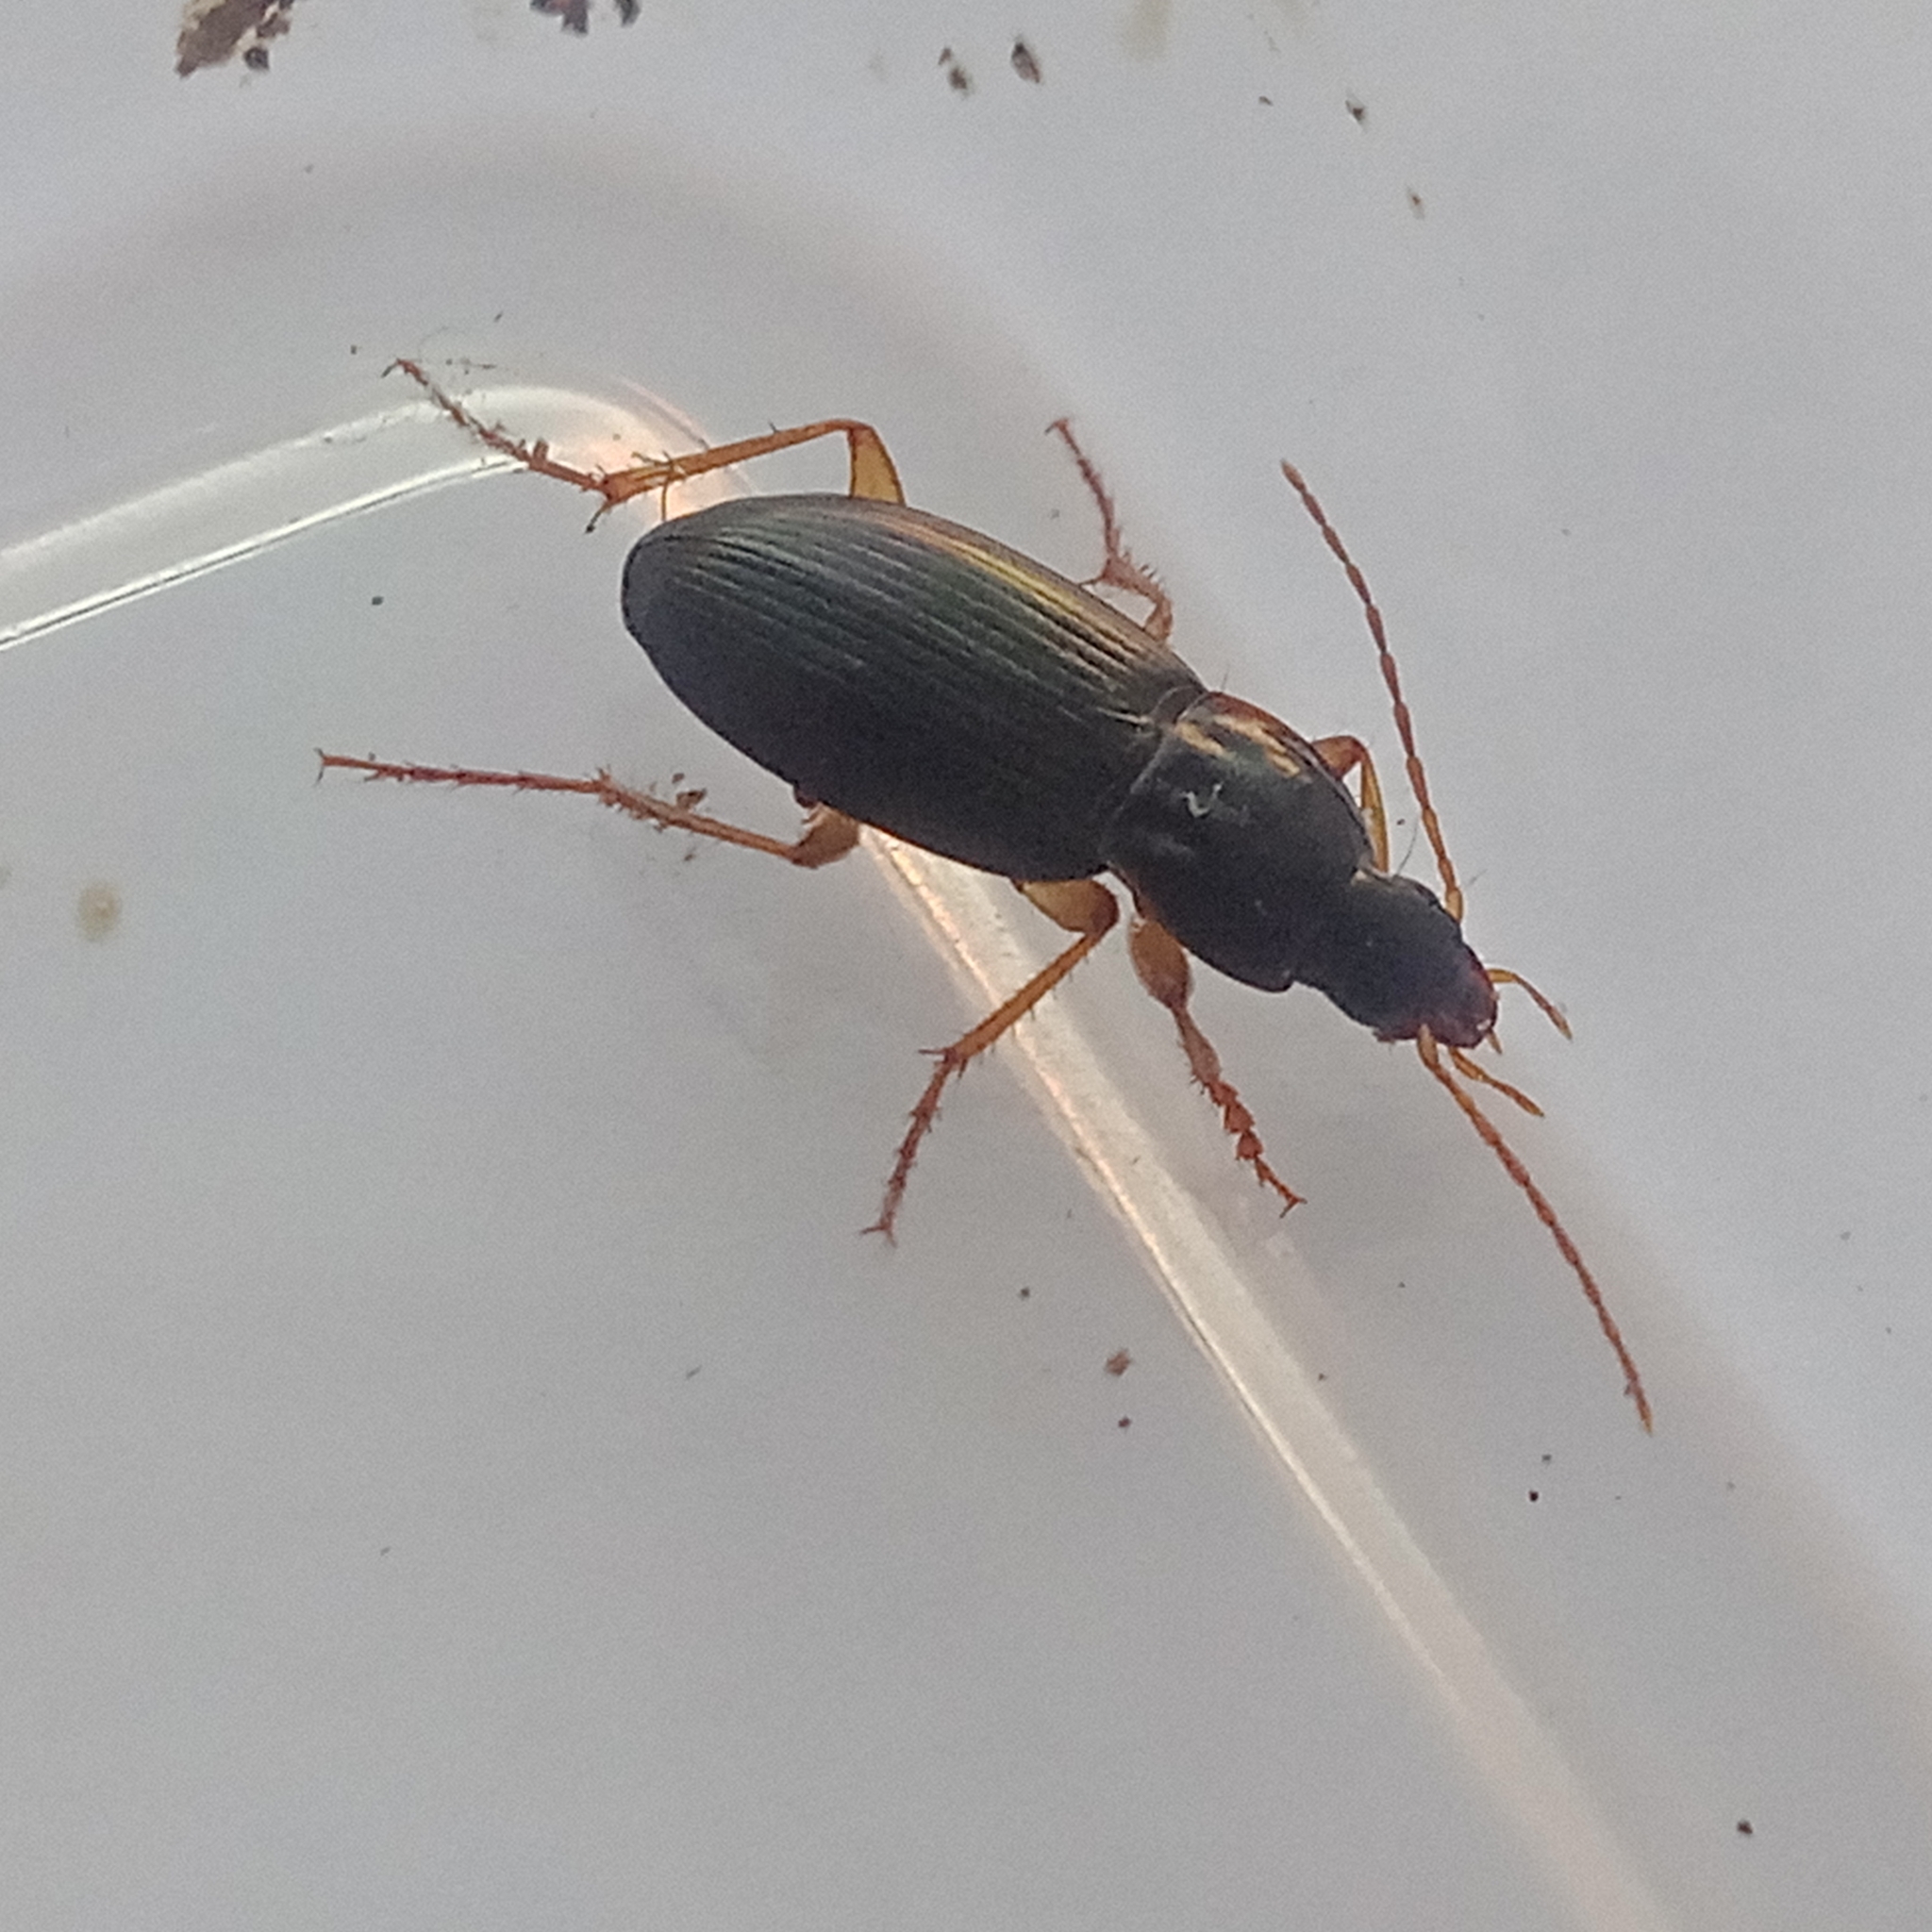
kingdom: Animalia
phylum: Arthropoda
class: Insecta
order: Coleoptera
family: Carabidae
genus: Calathus
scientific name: Calathus micropterus
